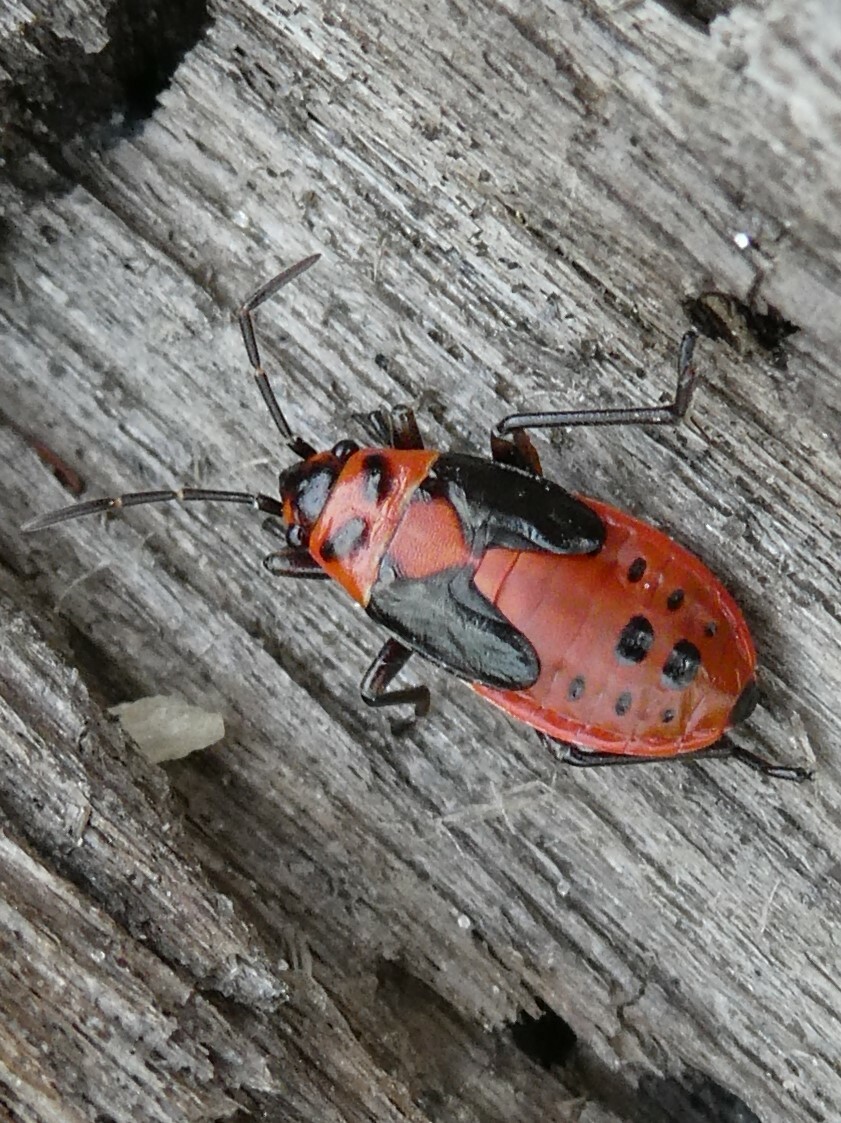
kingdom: Animalia
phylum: Arthropoda
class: Insecta
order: Hemiptera
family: Lygaeidae
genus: Lygaeus
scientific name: Lygaeus kalmii
